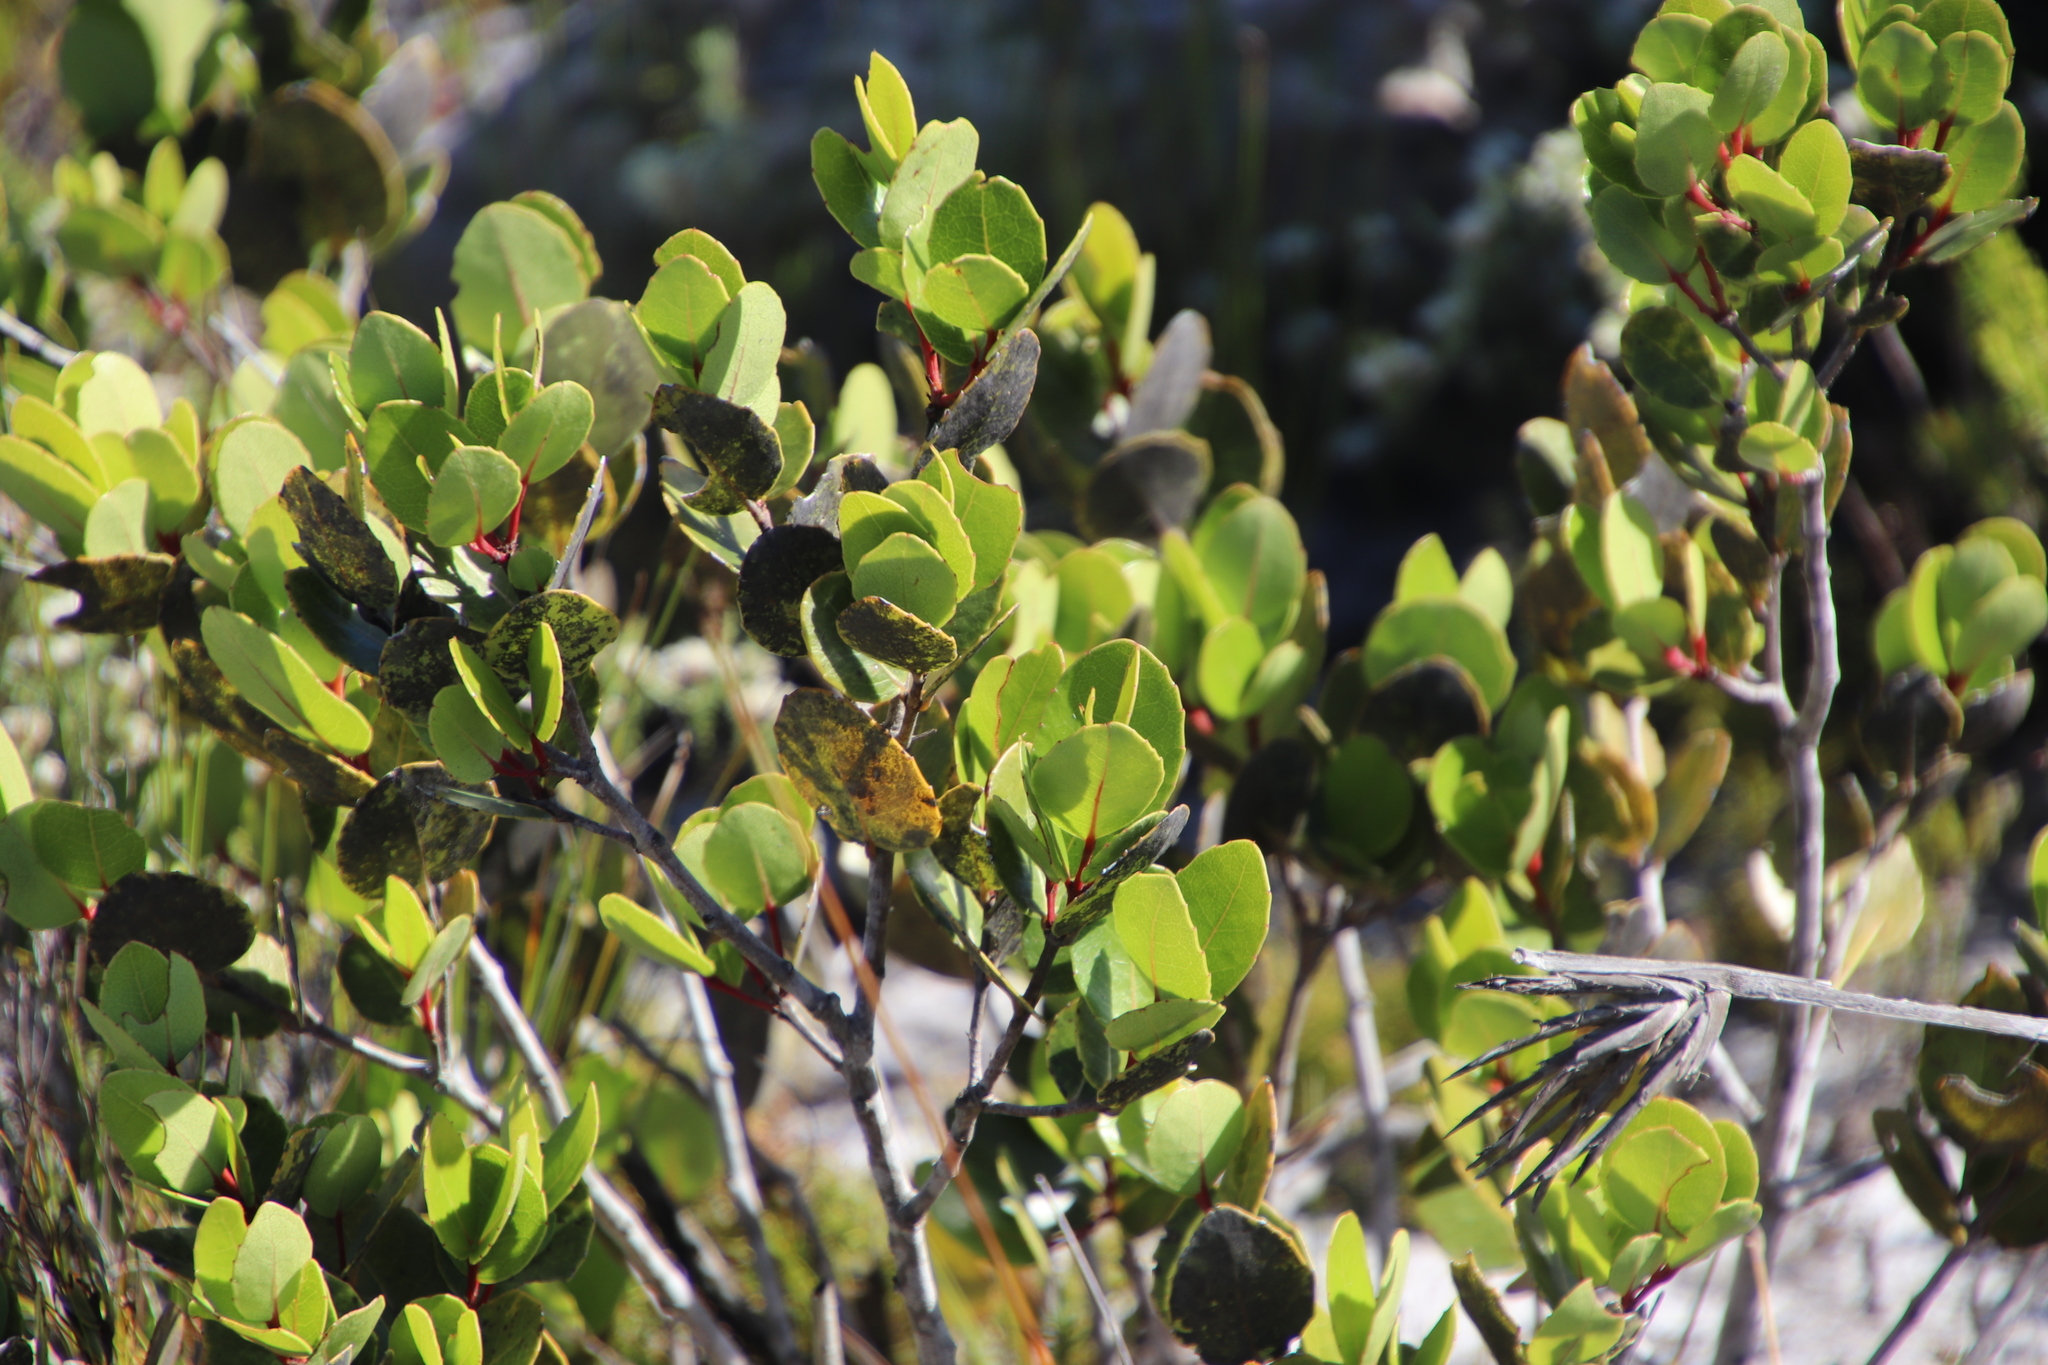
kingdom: Plantae
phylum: Tracheophyta
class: Magnoliopsida
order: Celastrales
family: Celastraceae
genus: Cassine
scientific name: Cassine peragua
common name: Cape saffron
